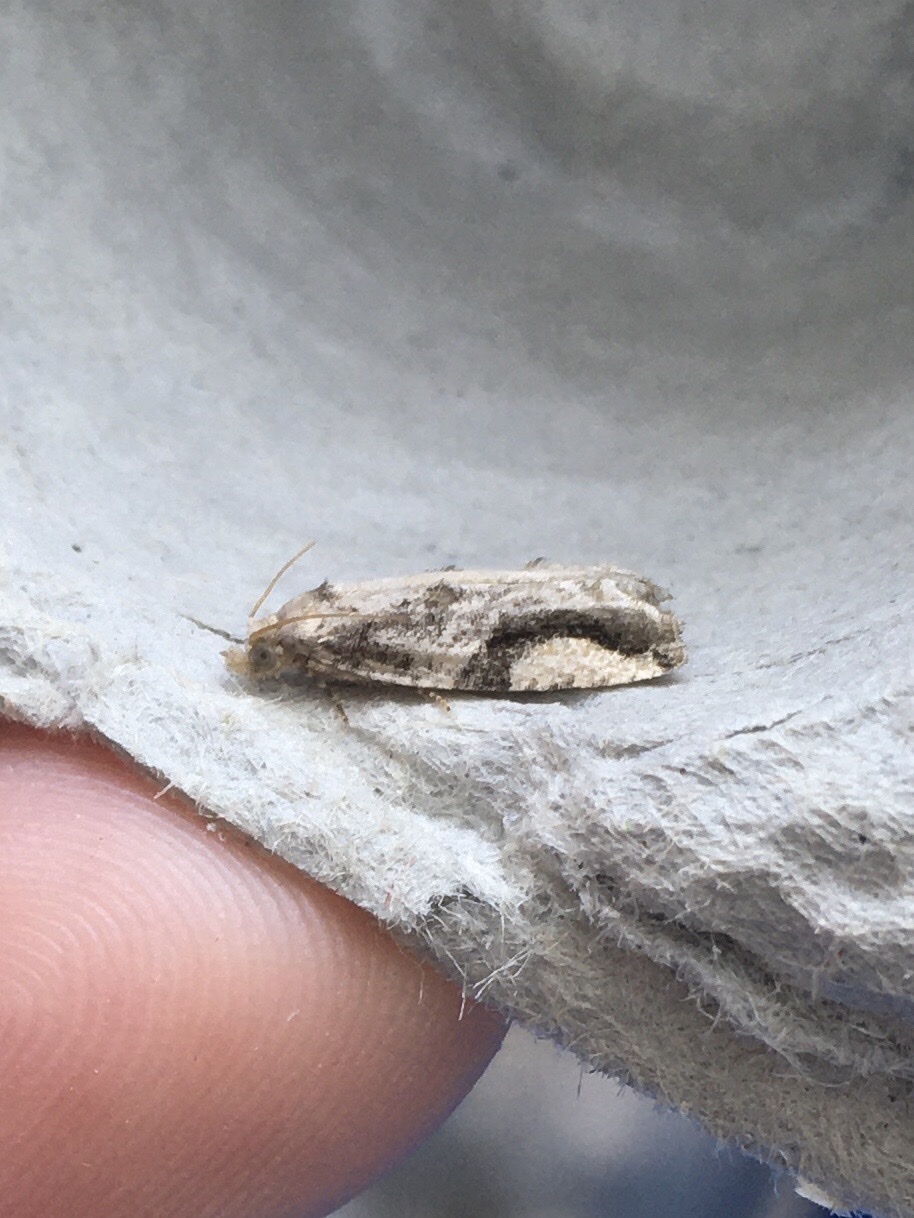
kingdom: Animalia
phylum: Arthropoda
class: Insecta
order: Lepidoptera
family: Tortricidae
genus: Proteoteras
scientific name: Proteoteras crescentana
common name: Black-crescent proteoteras moth
